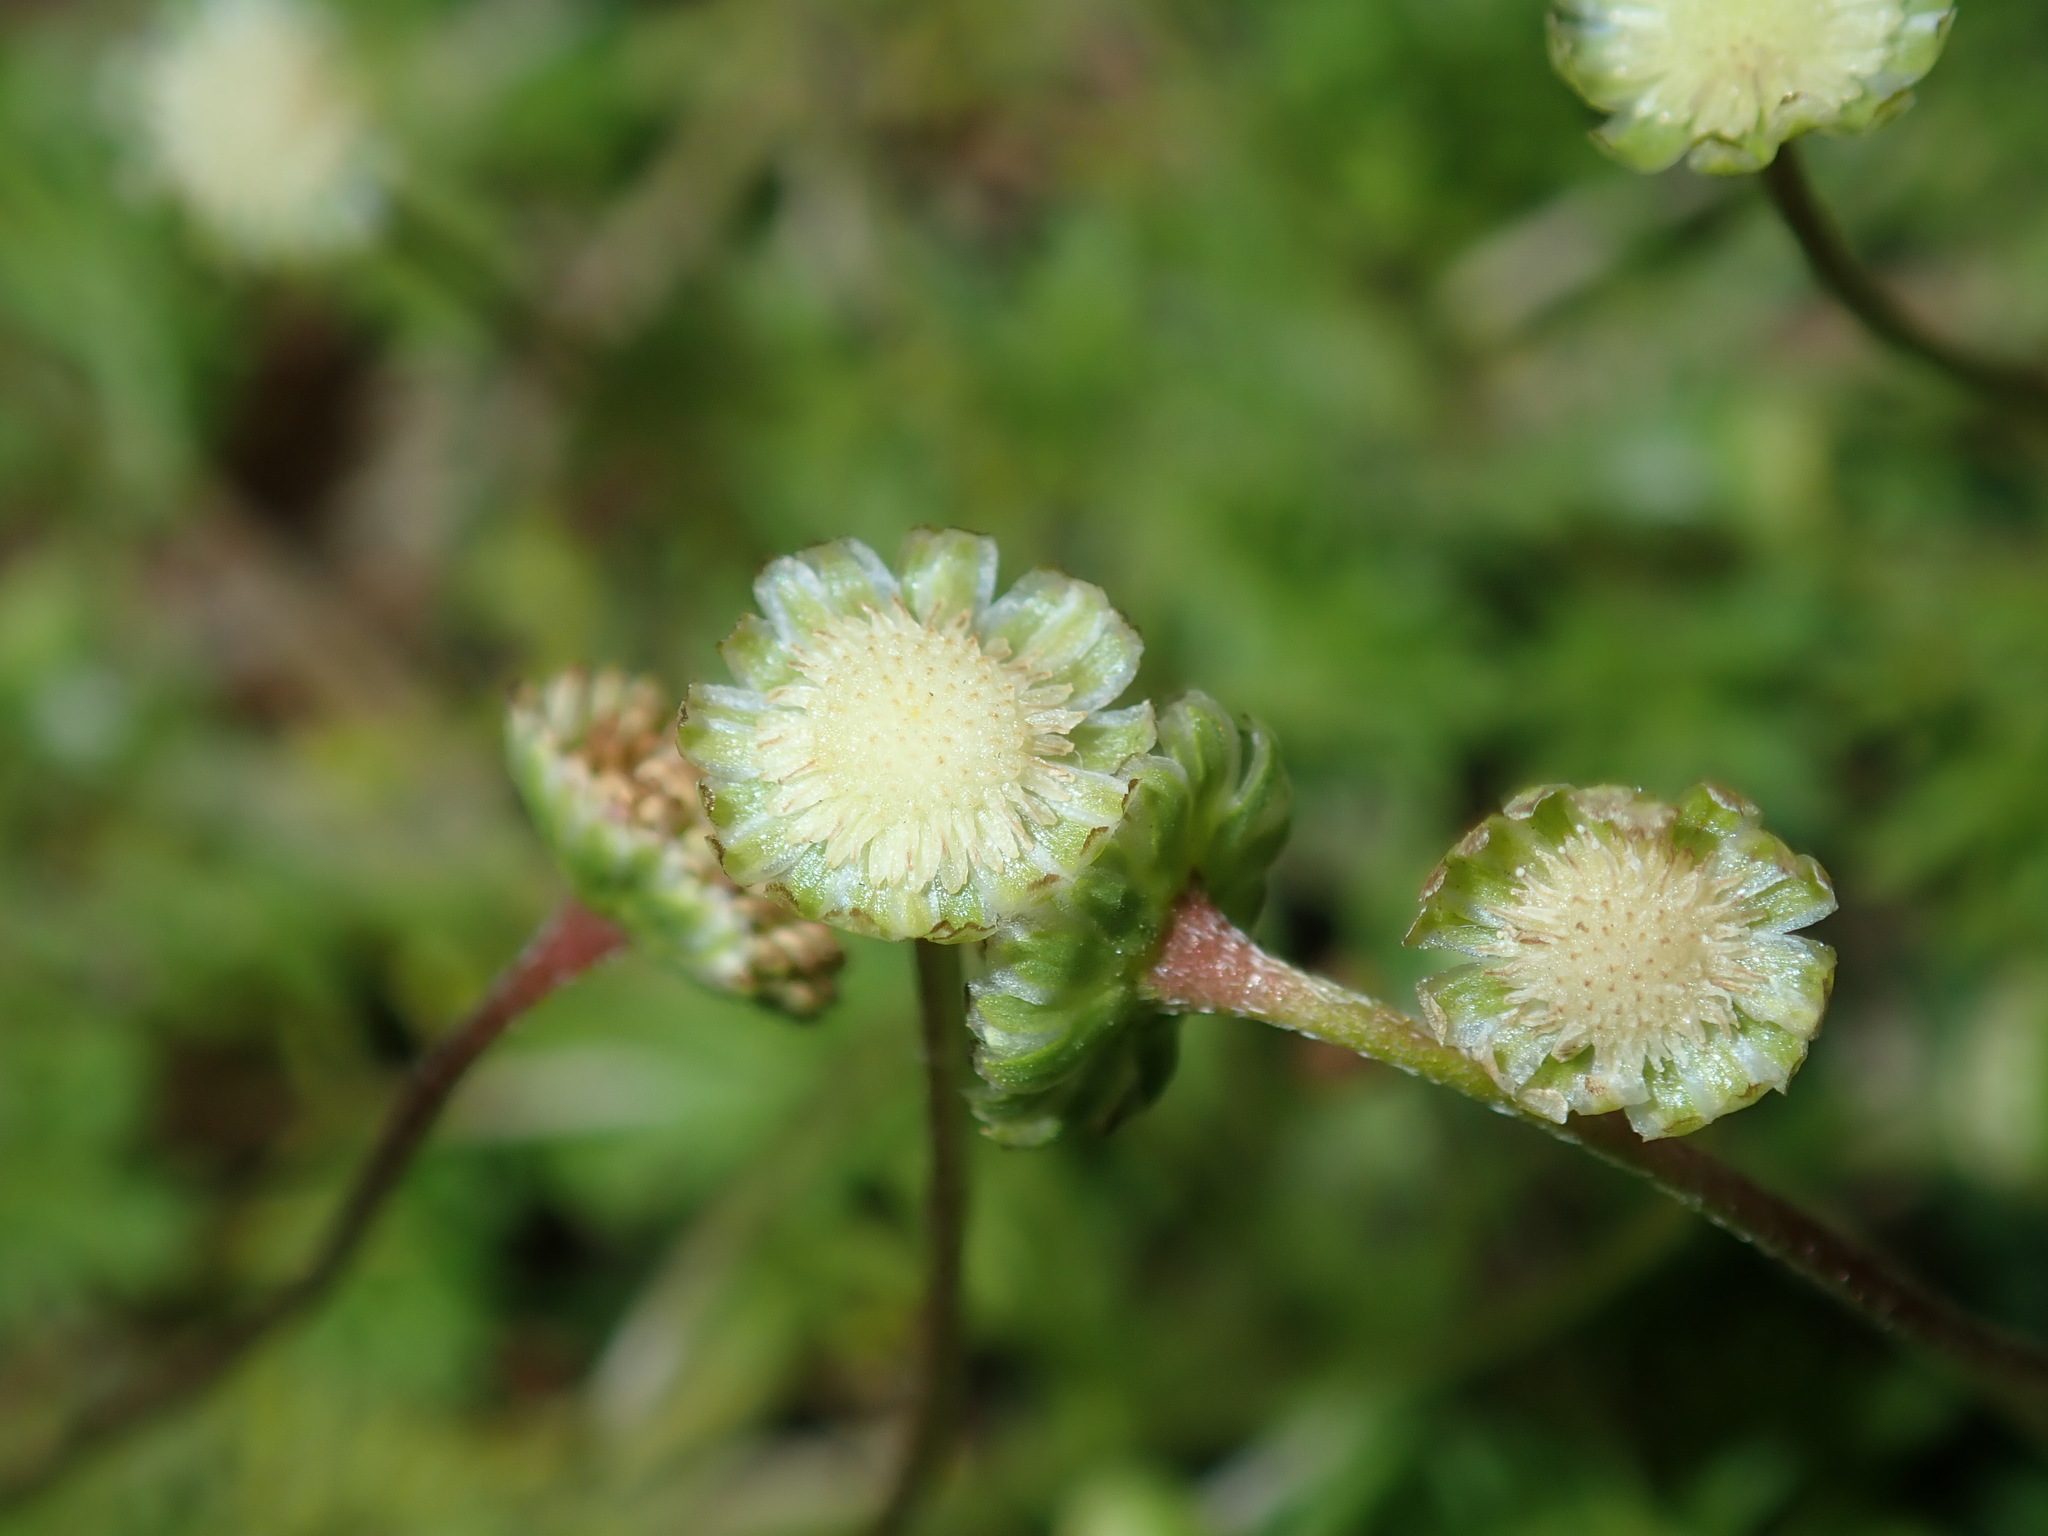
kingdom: Plantae
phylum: Tracheophyta
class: Magnoliopsida
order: Asterales
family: Asteraceae
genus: Cotula
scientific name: Cotula australis
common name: Australian waterbuttons
